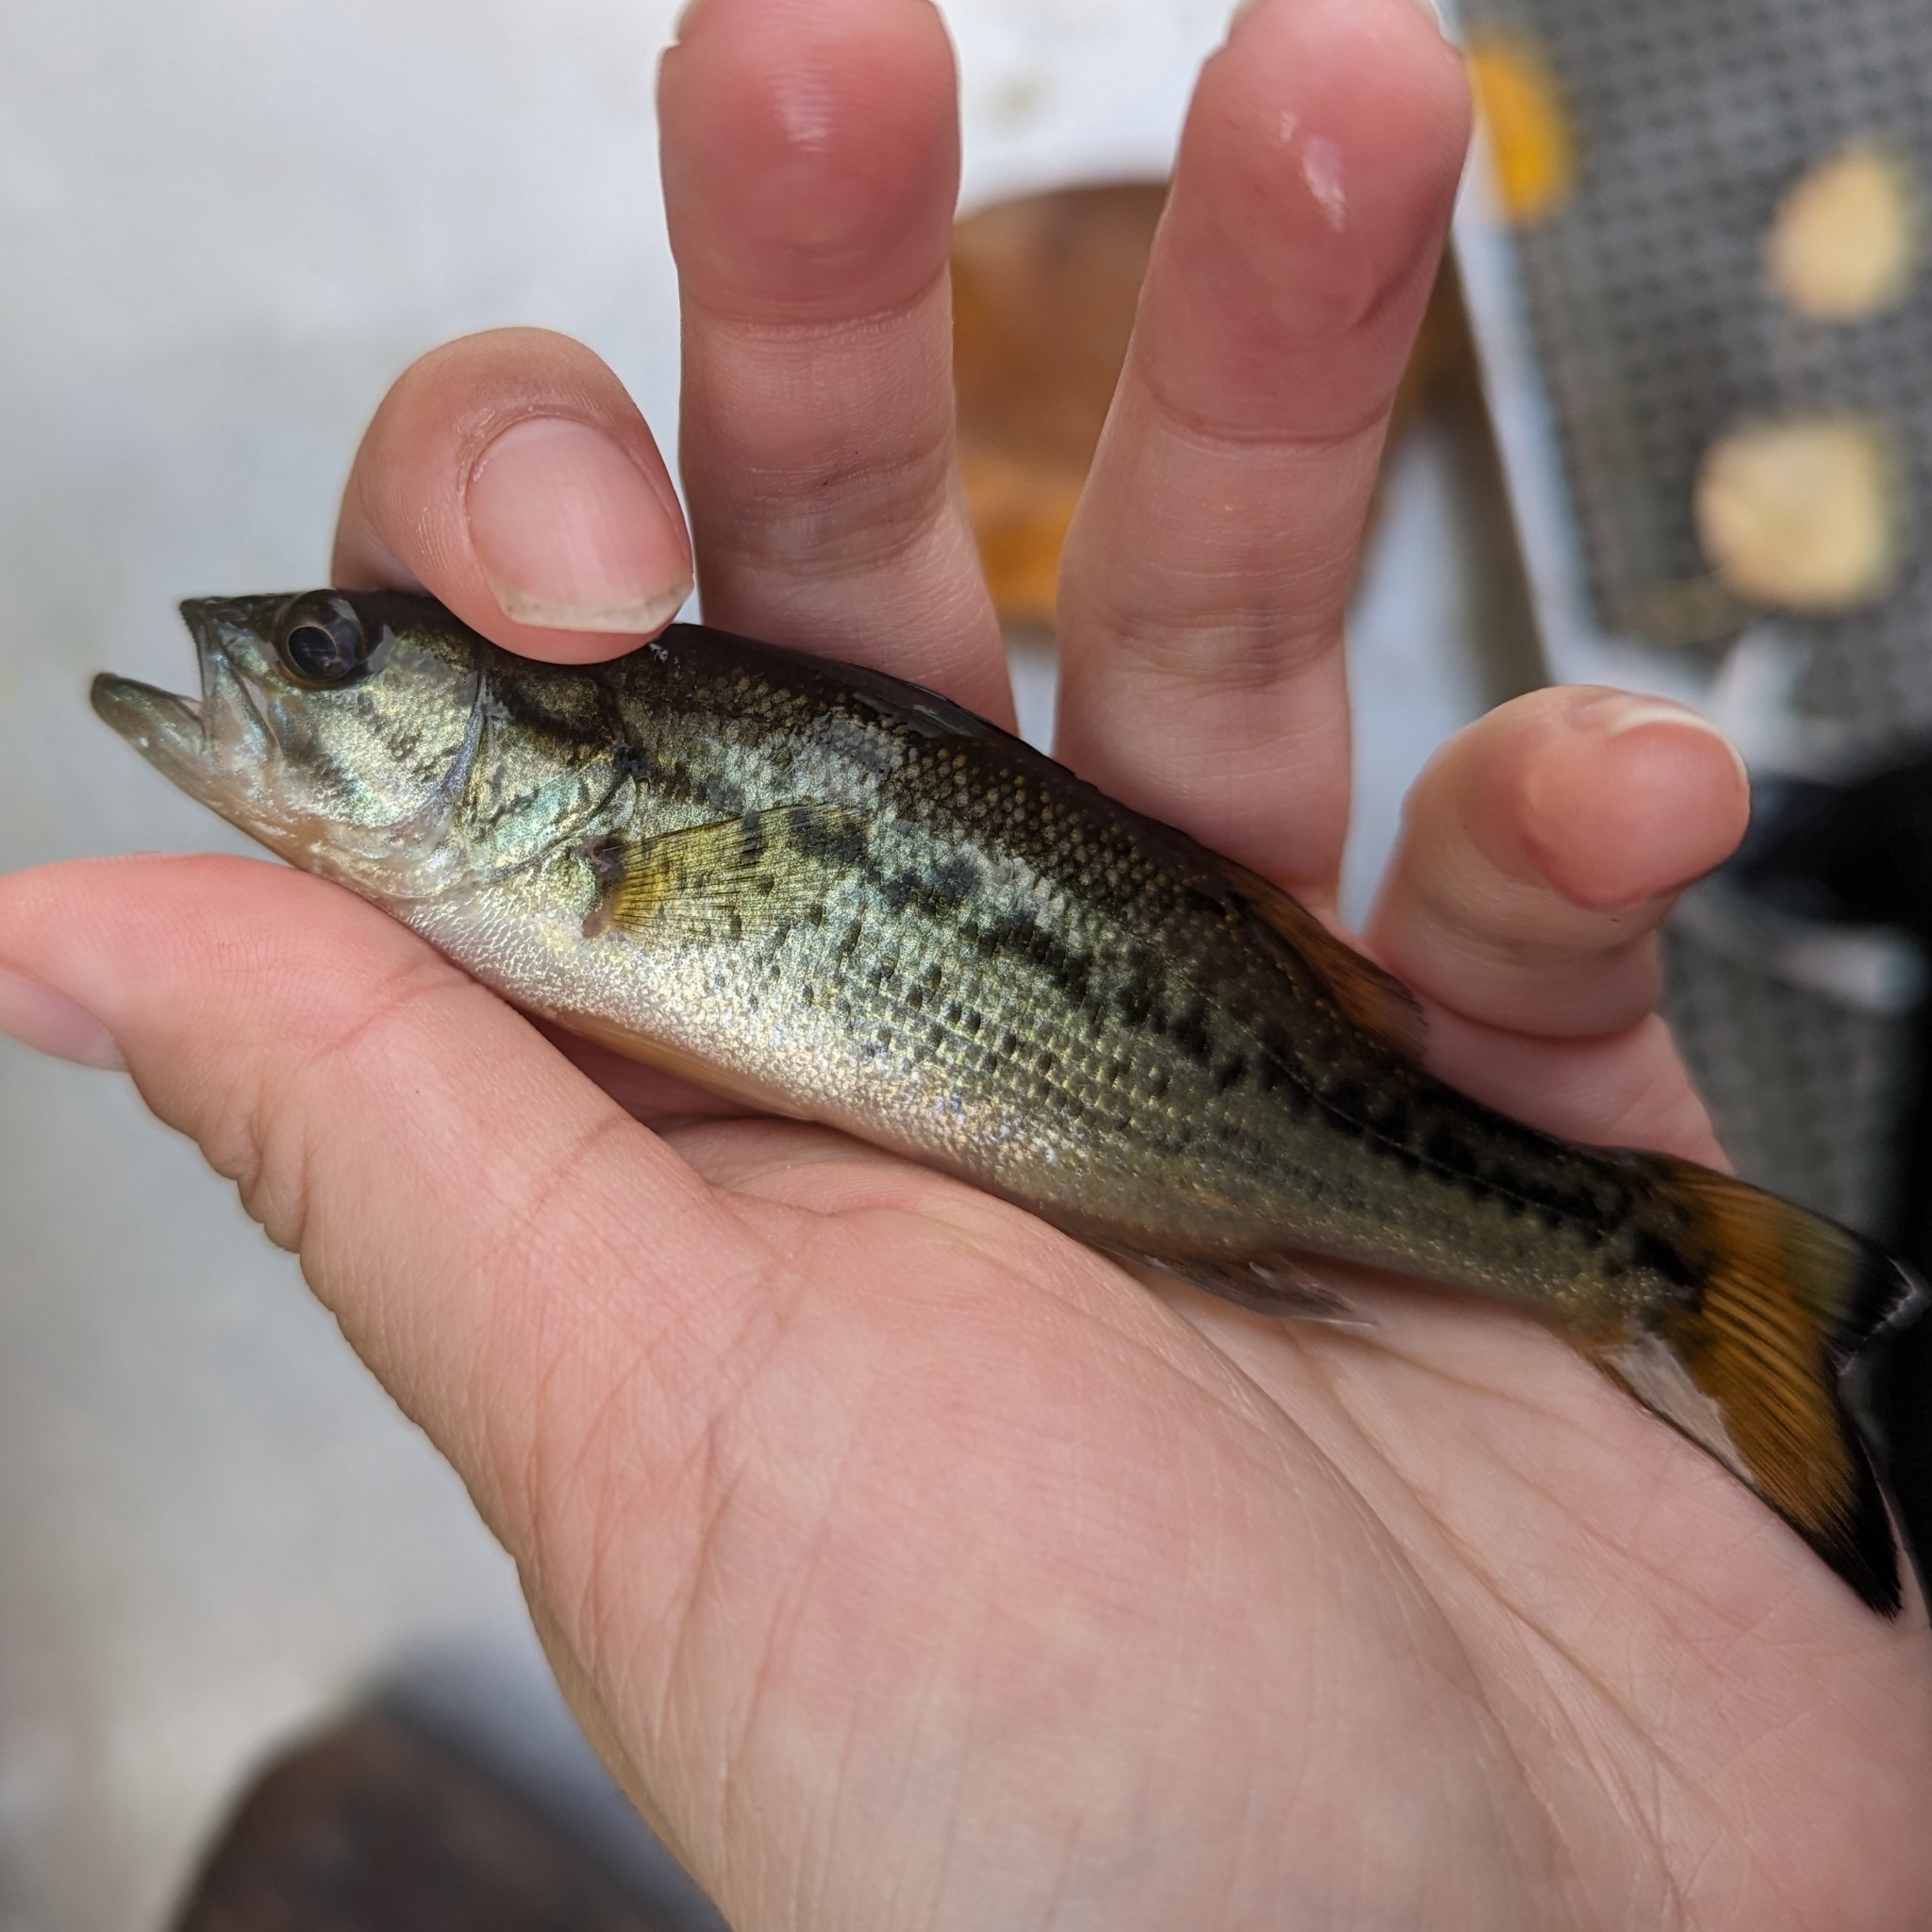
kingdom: Animalia
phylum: Chordata
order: Perciformes
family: Centrarchidae
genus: Micropterus
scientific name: Micropterus
